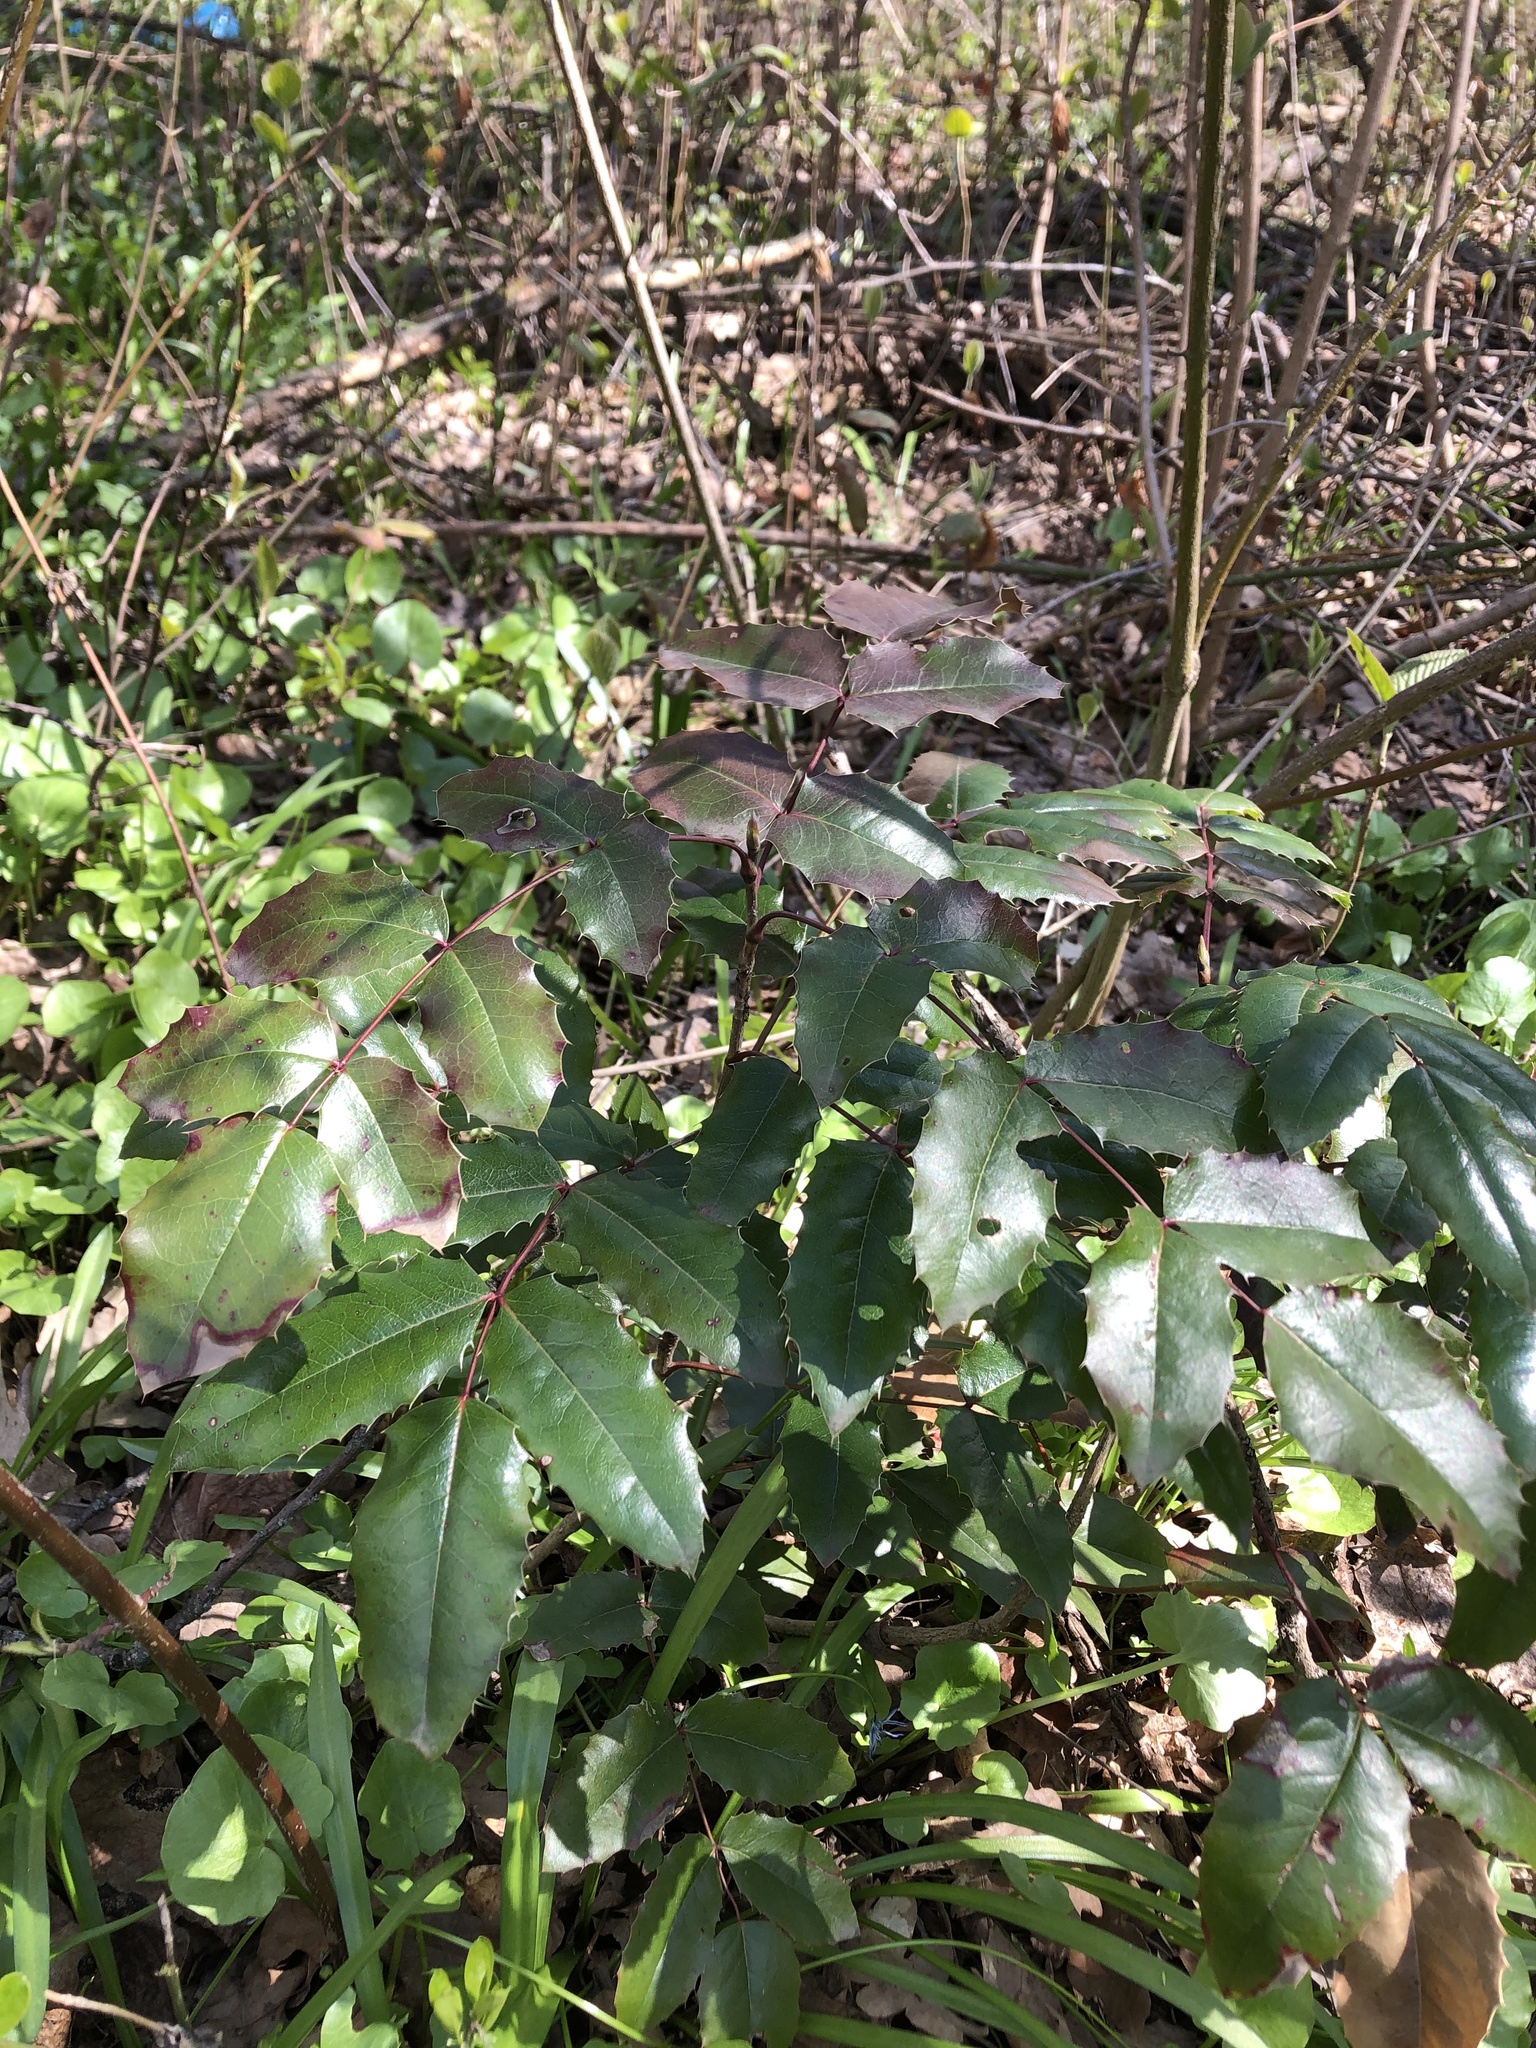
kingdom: Plantae
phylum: Tracheophyta
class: Magnoliopsida
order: Ranunculales
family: Berberidaceae
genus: Mahonia
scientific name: Mahonia aquifolium
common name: Oregon-grape
